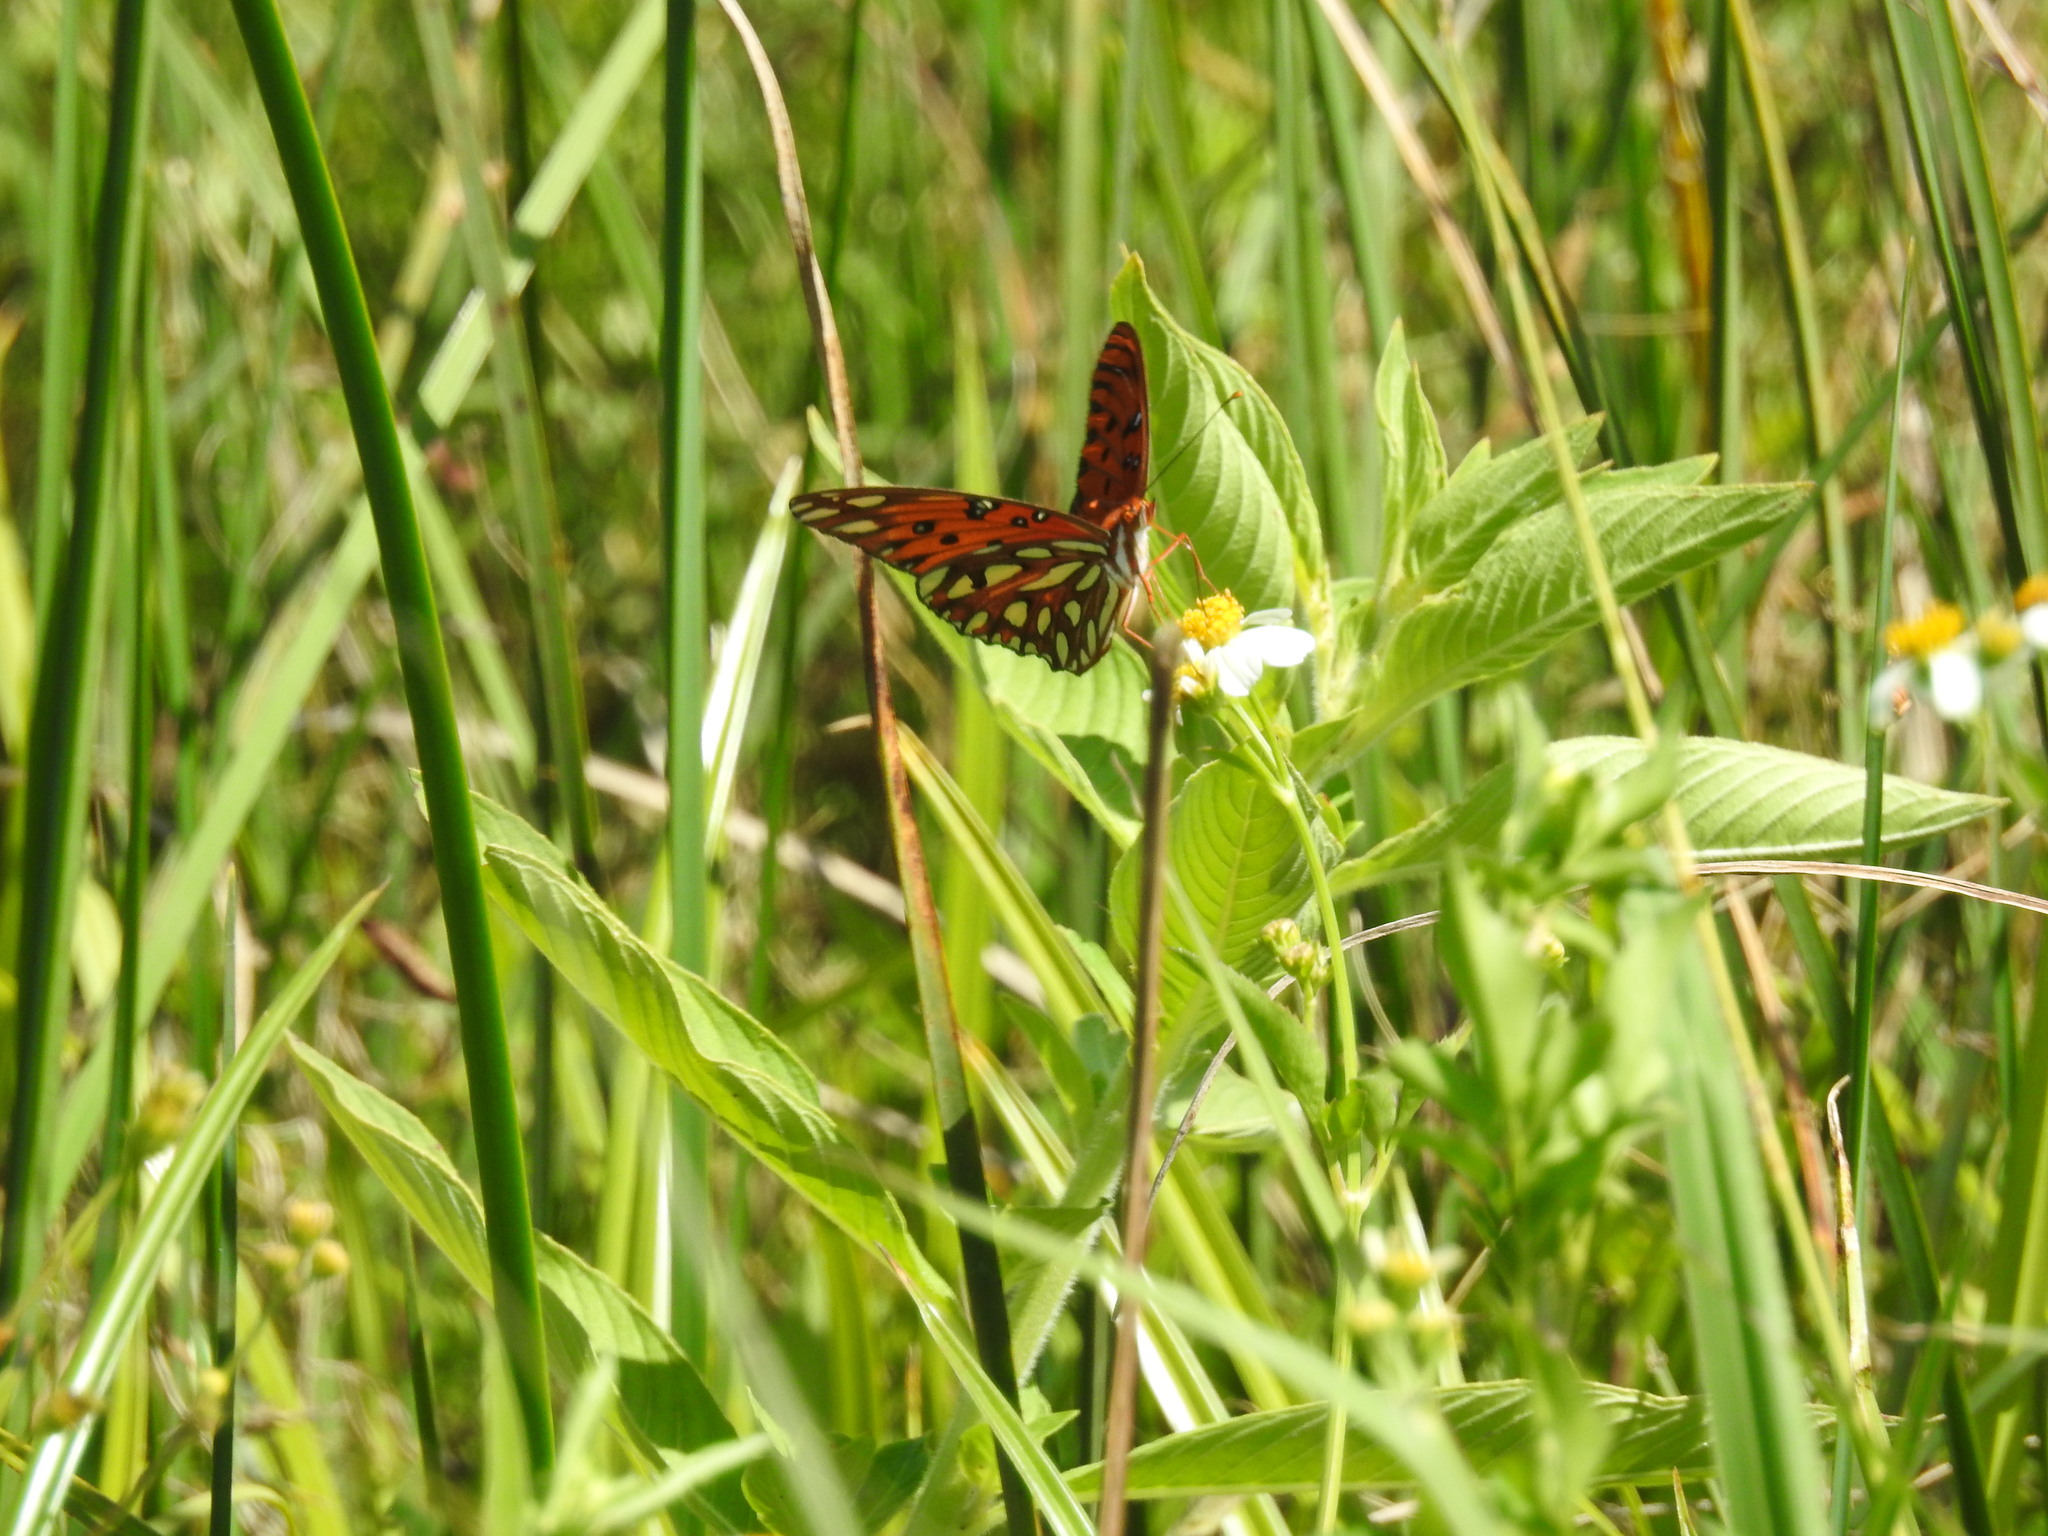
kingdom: Animalia
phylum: Arthropoda
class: Insecta
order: Lepidoptera
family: Nymphalidae
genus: Dione
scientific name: Dione vanillae
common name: Gulf fritillary
